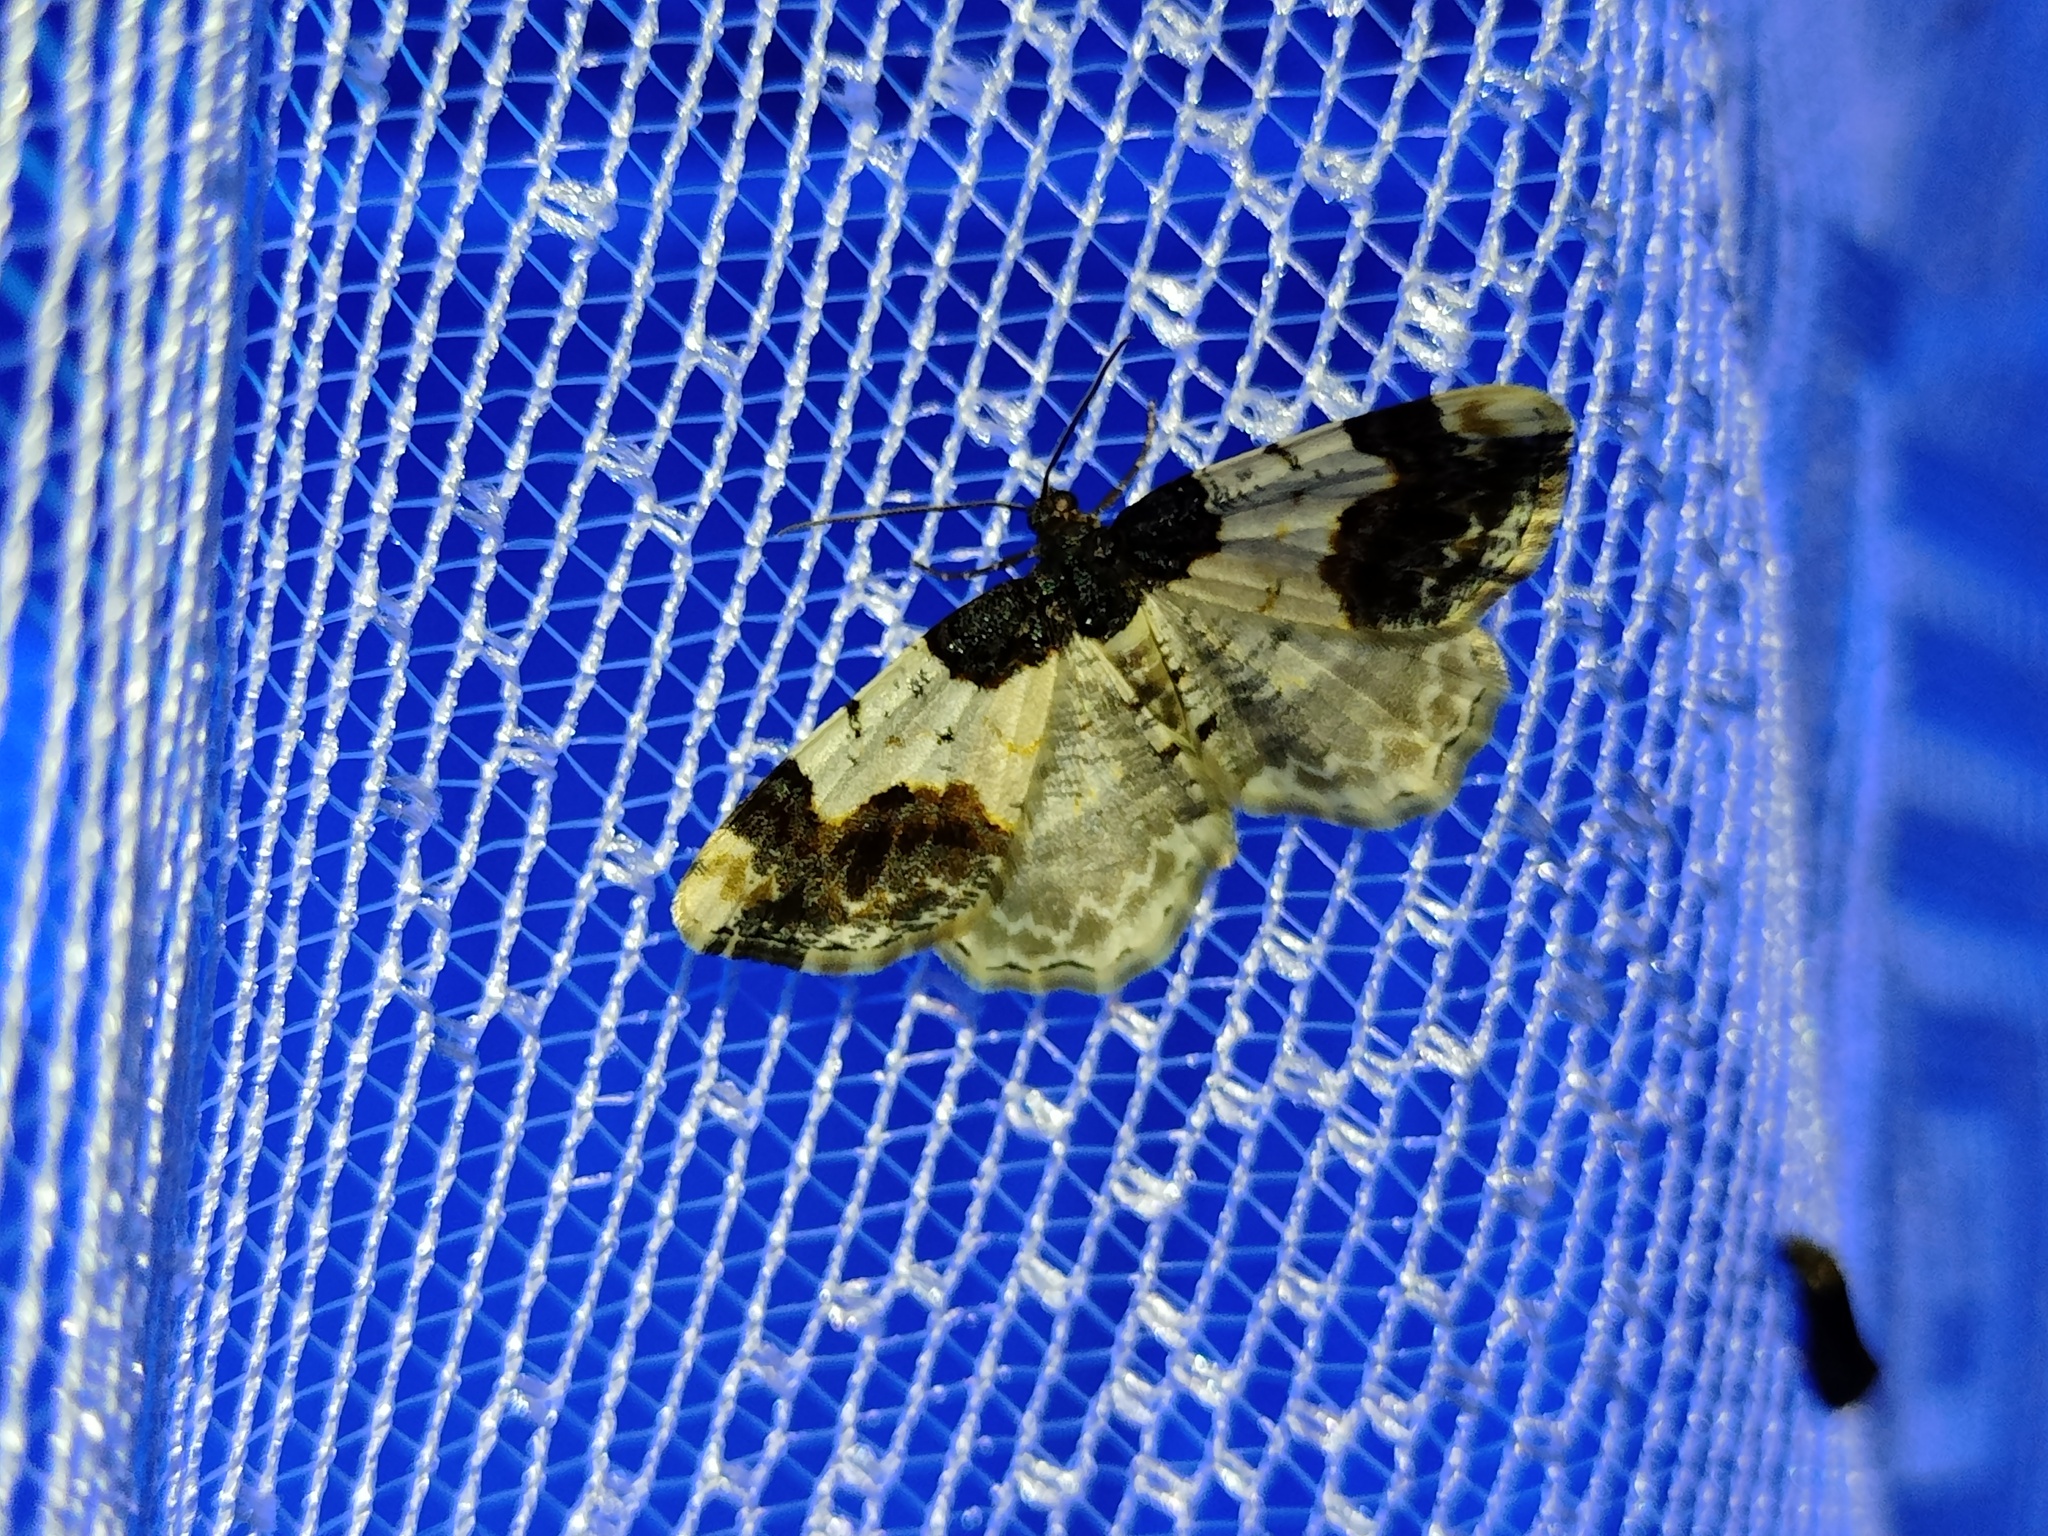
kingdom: Animalia
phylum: Arthropoda
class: Insecta
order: Lepidoptera
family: Geometridae
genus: Ligdia
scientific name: Ligdia adustata
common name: Scorched carpet
